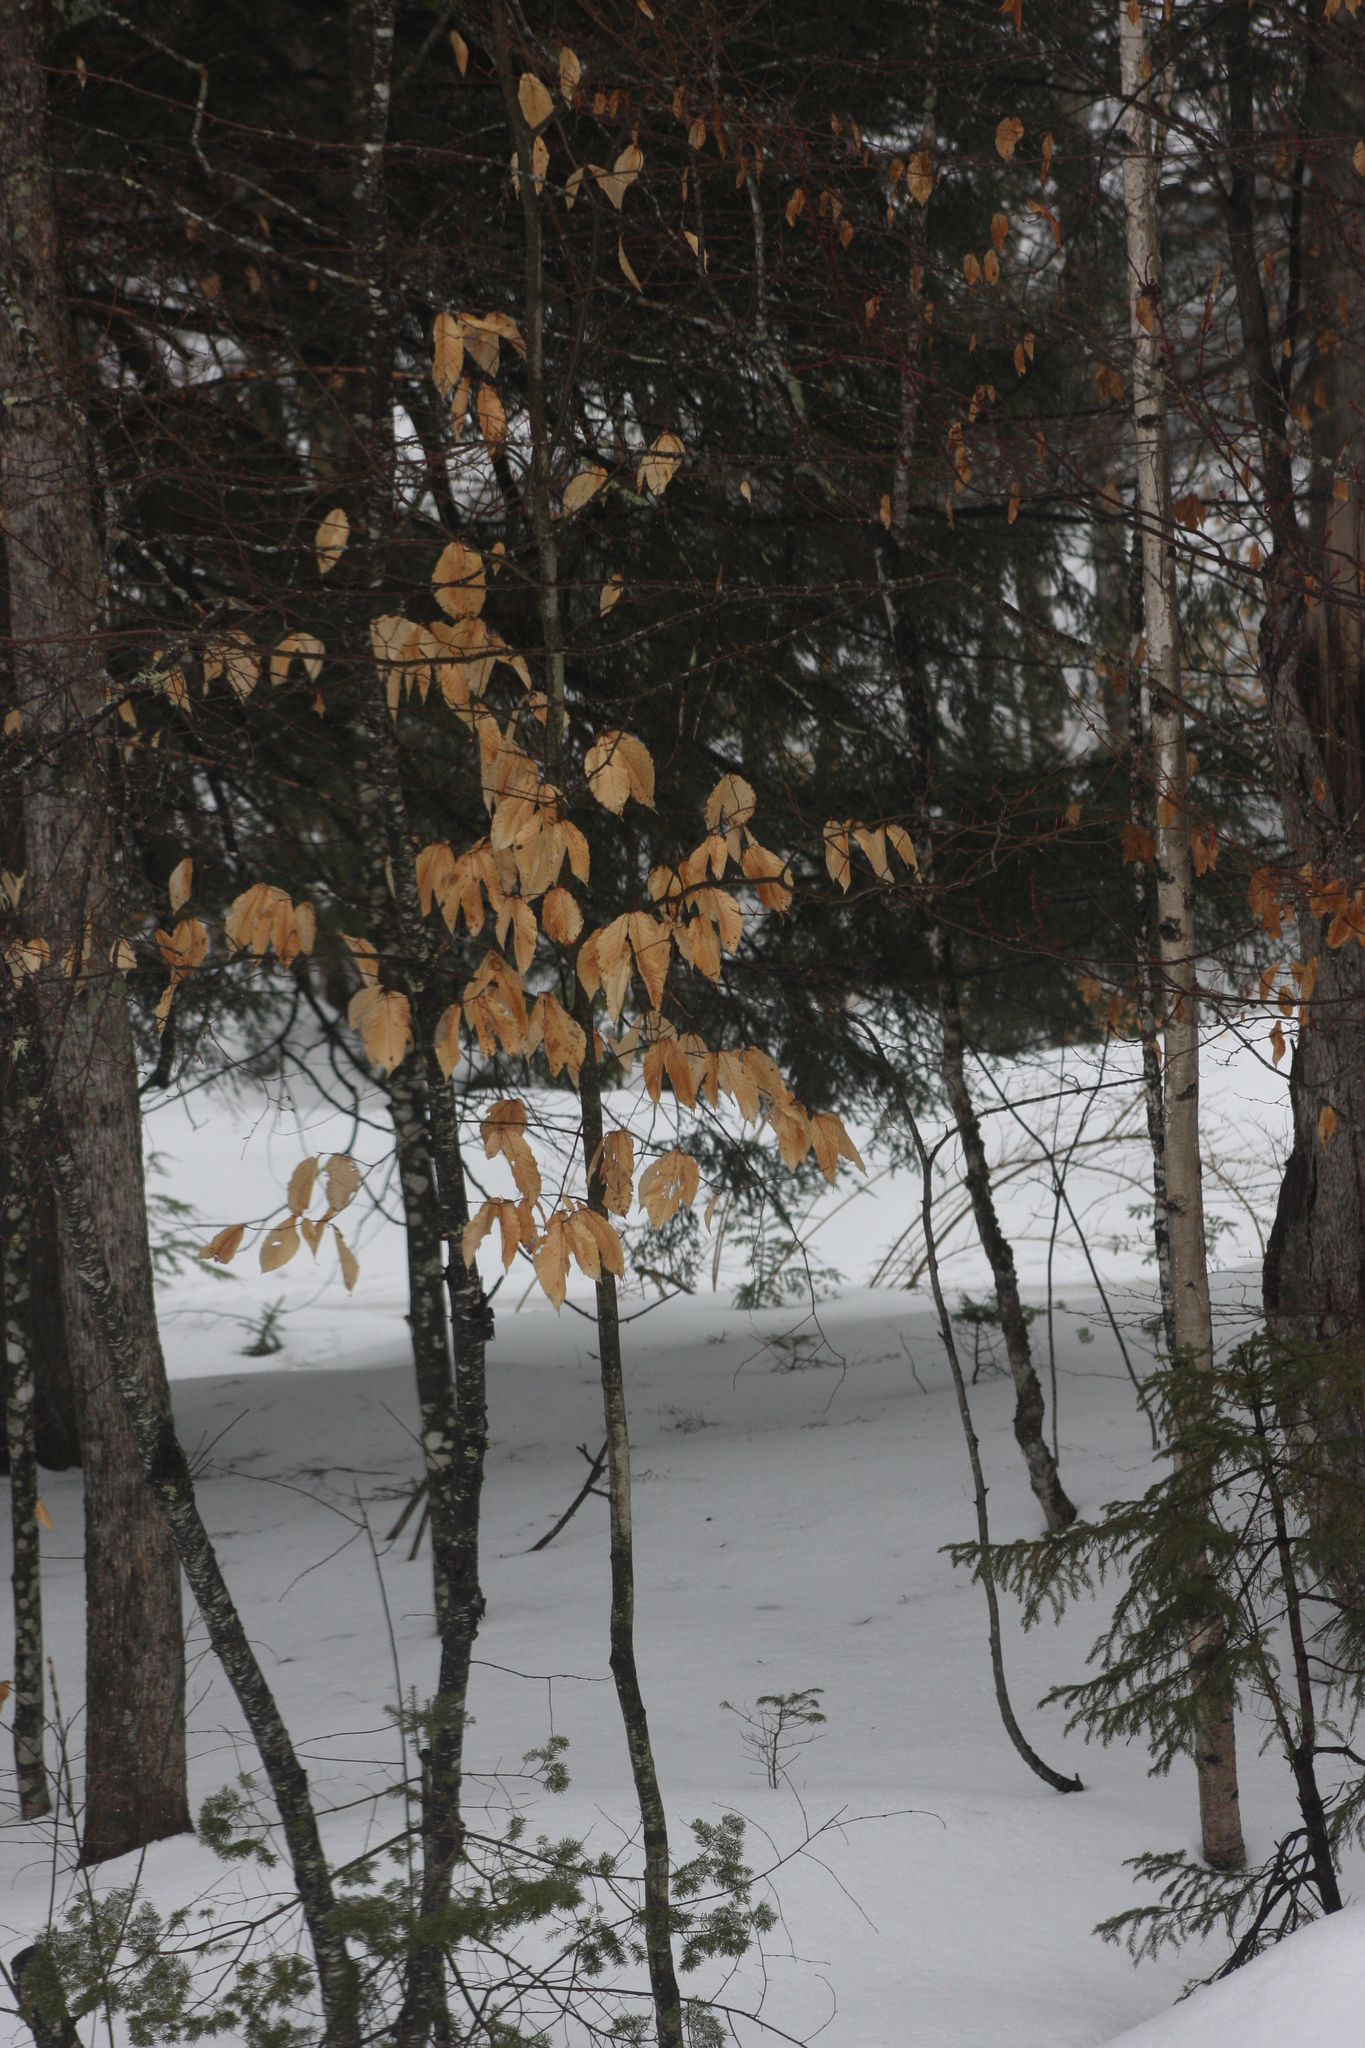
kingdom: Plantae
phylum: Tracheophyta
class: Magnoliopsida
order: Fagales
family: Fagaceae
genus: Fagus
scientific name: Fagus grandifolia
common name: American beech
